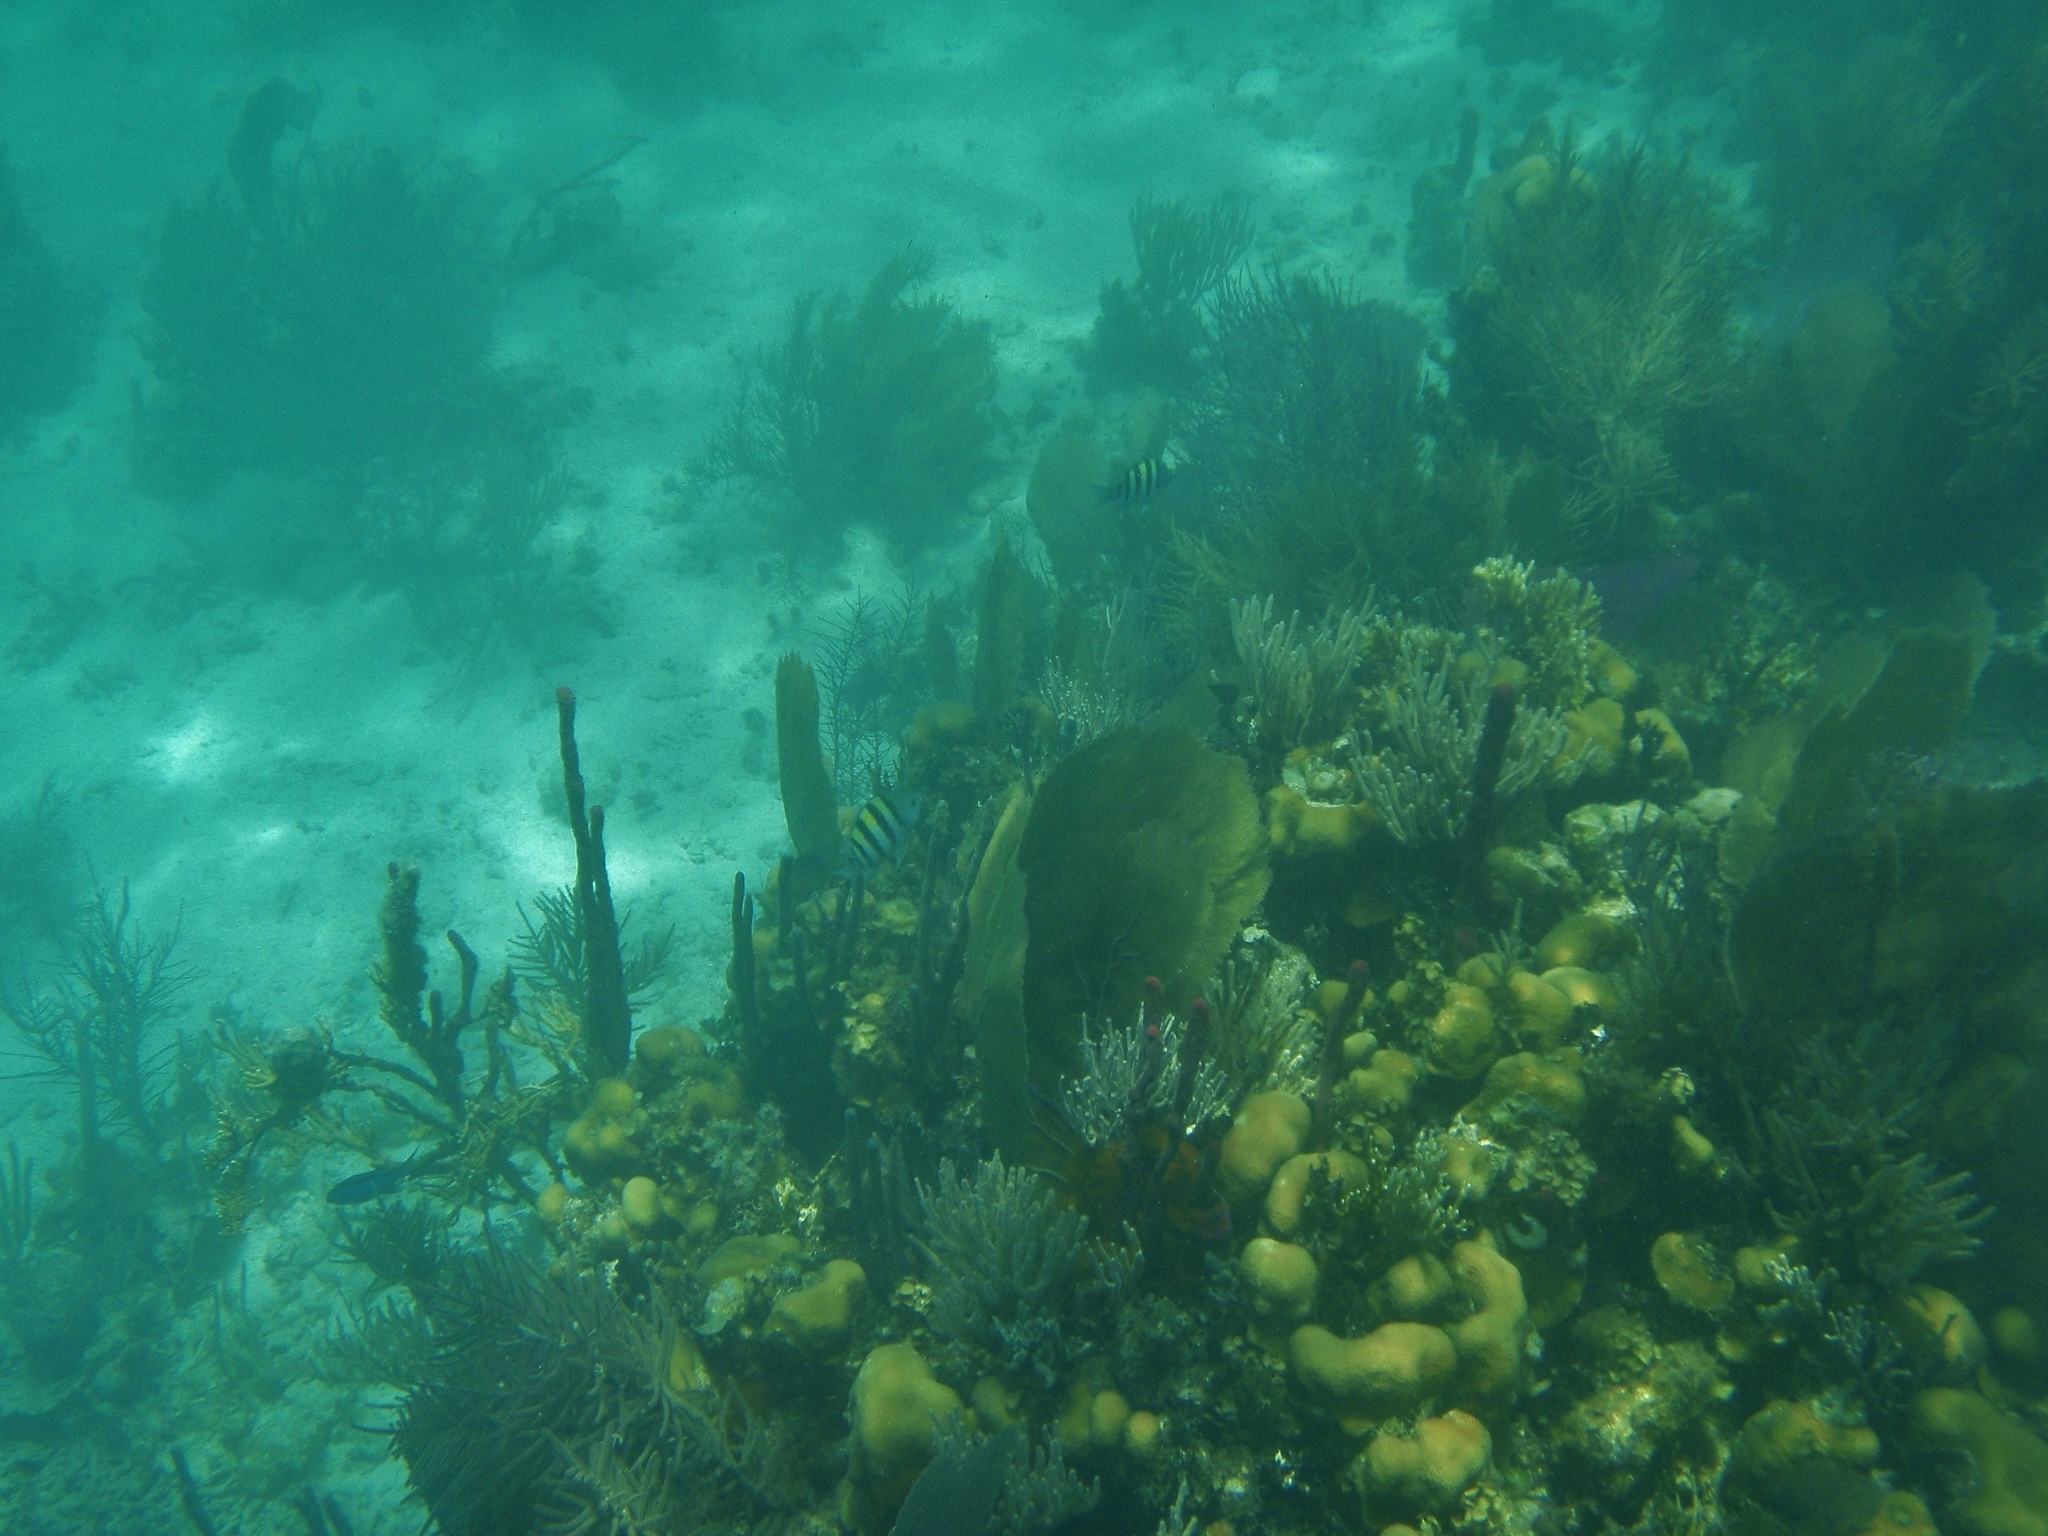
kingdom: Animalia
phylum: Chordata
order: Perciformes
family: Pomacentridae
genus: Abudefduf
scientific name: Abudefduf saxatilis
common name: Sergeant major
